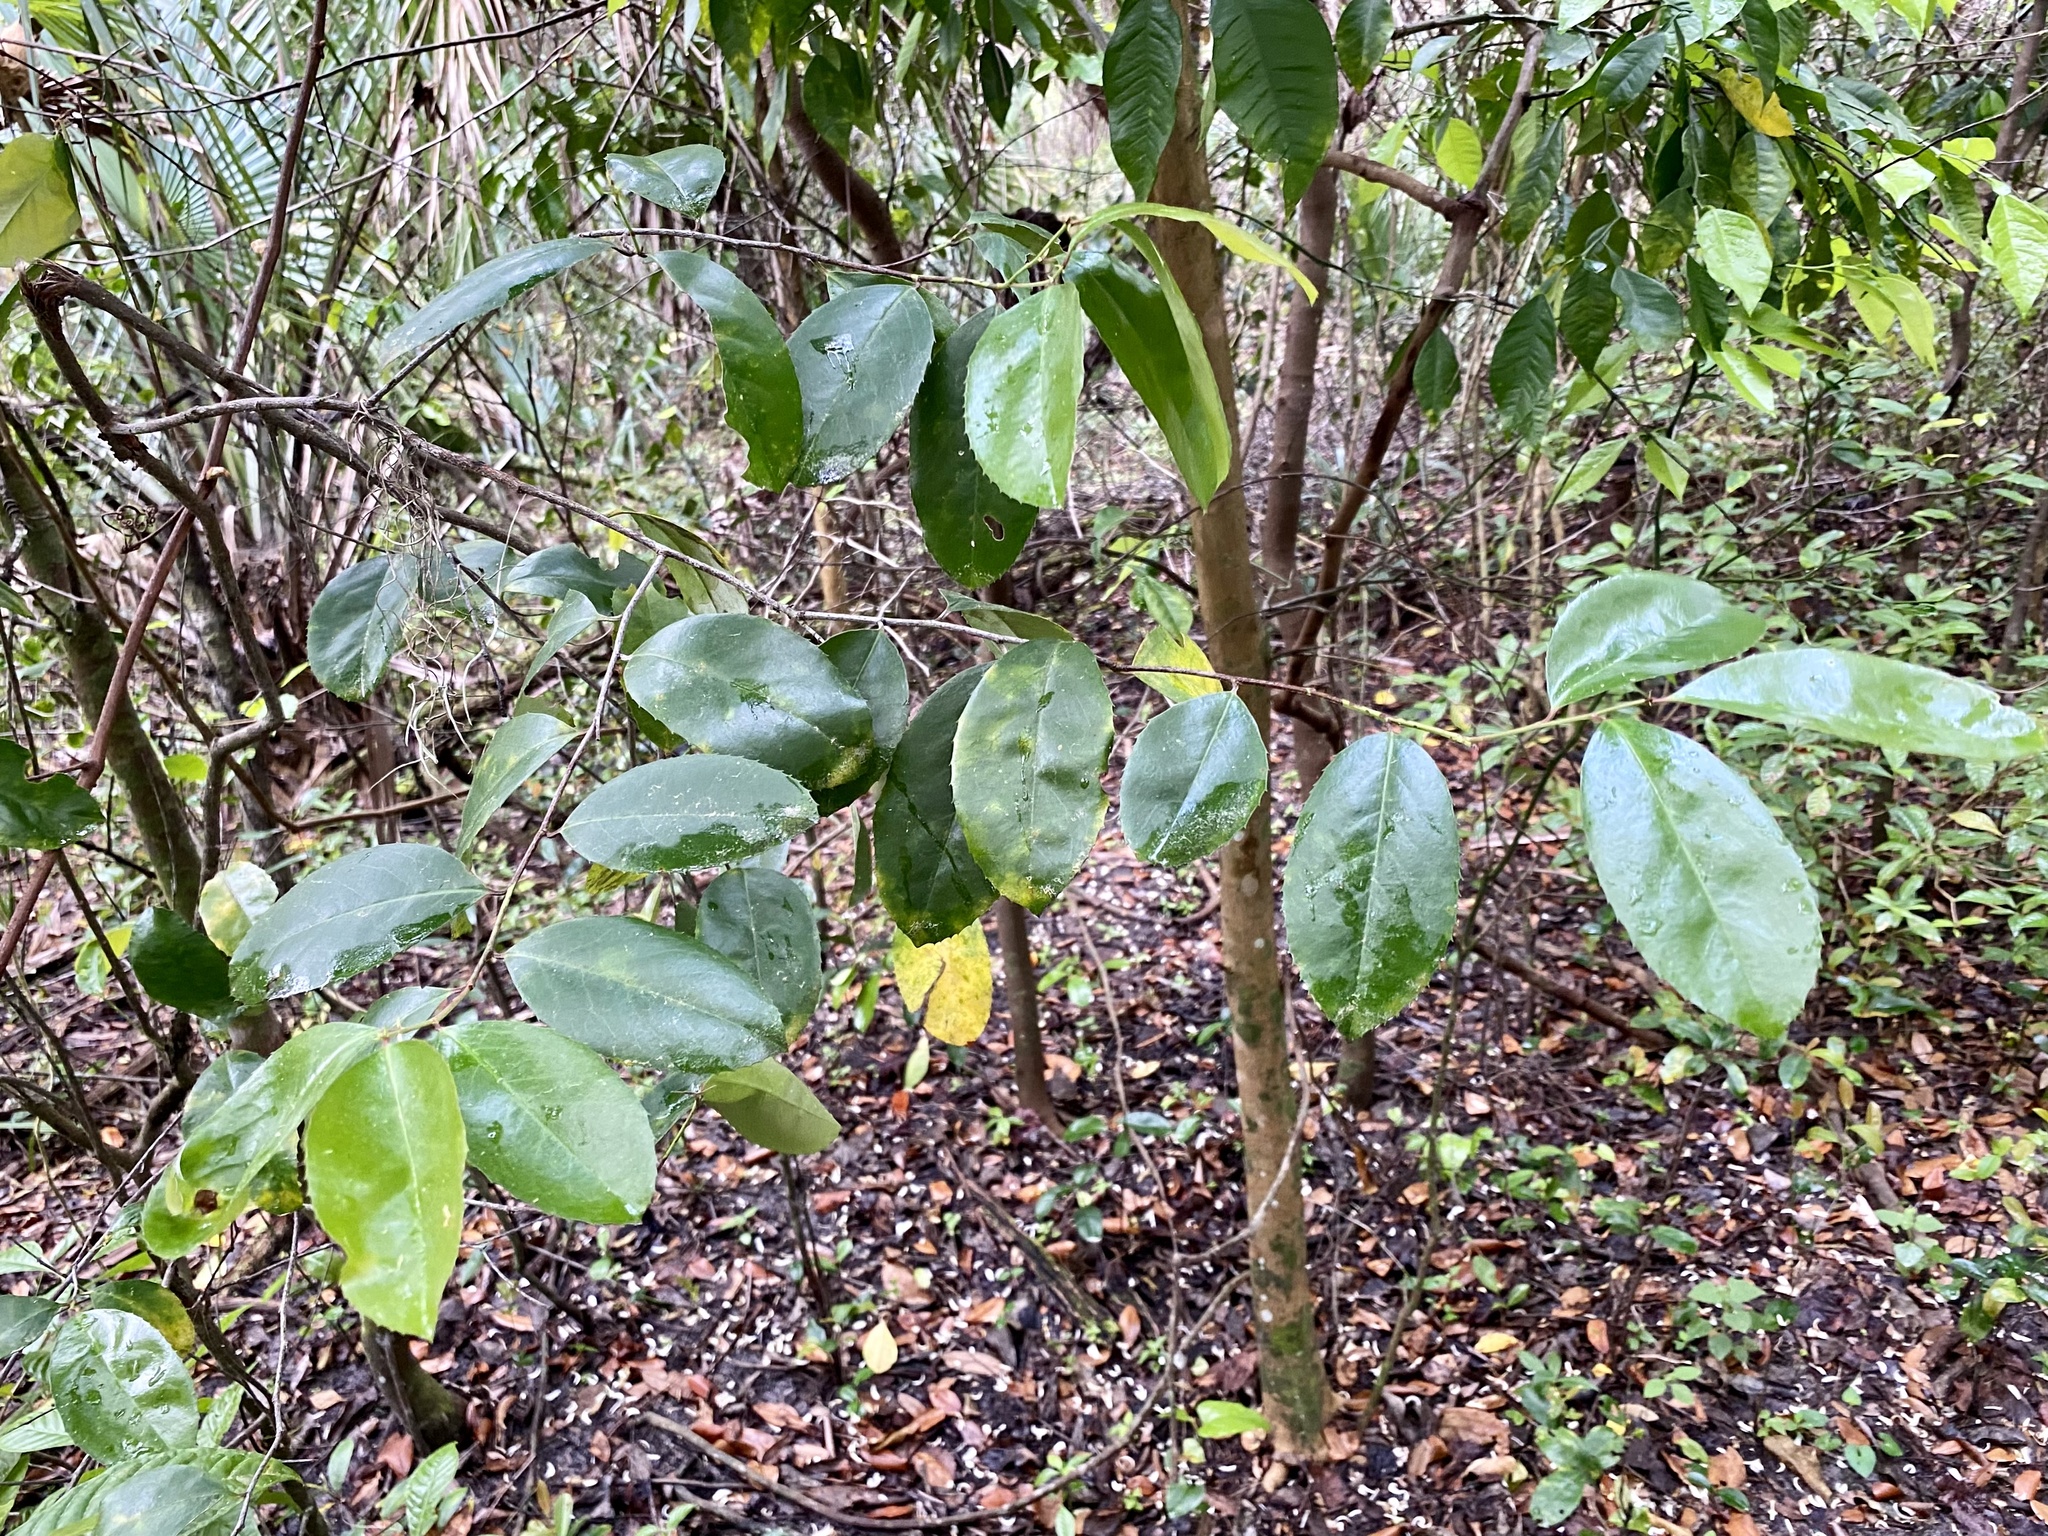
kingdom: Plantae
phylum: Tracheophyta
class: Magnoliopsida
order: Rosales
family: Rosaceae
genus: Prunus
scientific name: Prunus caroliniana
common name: Carolina laurel cherry
